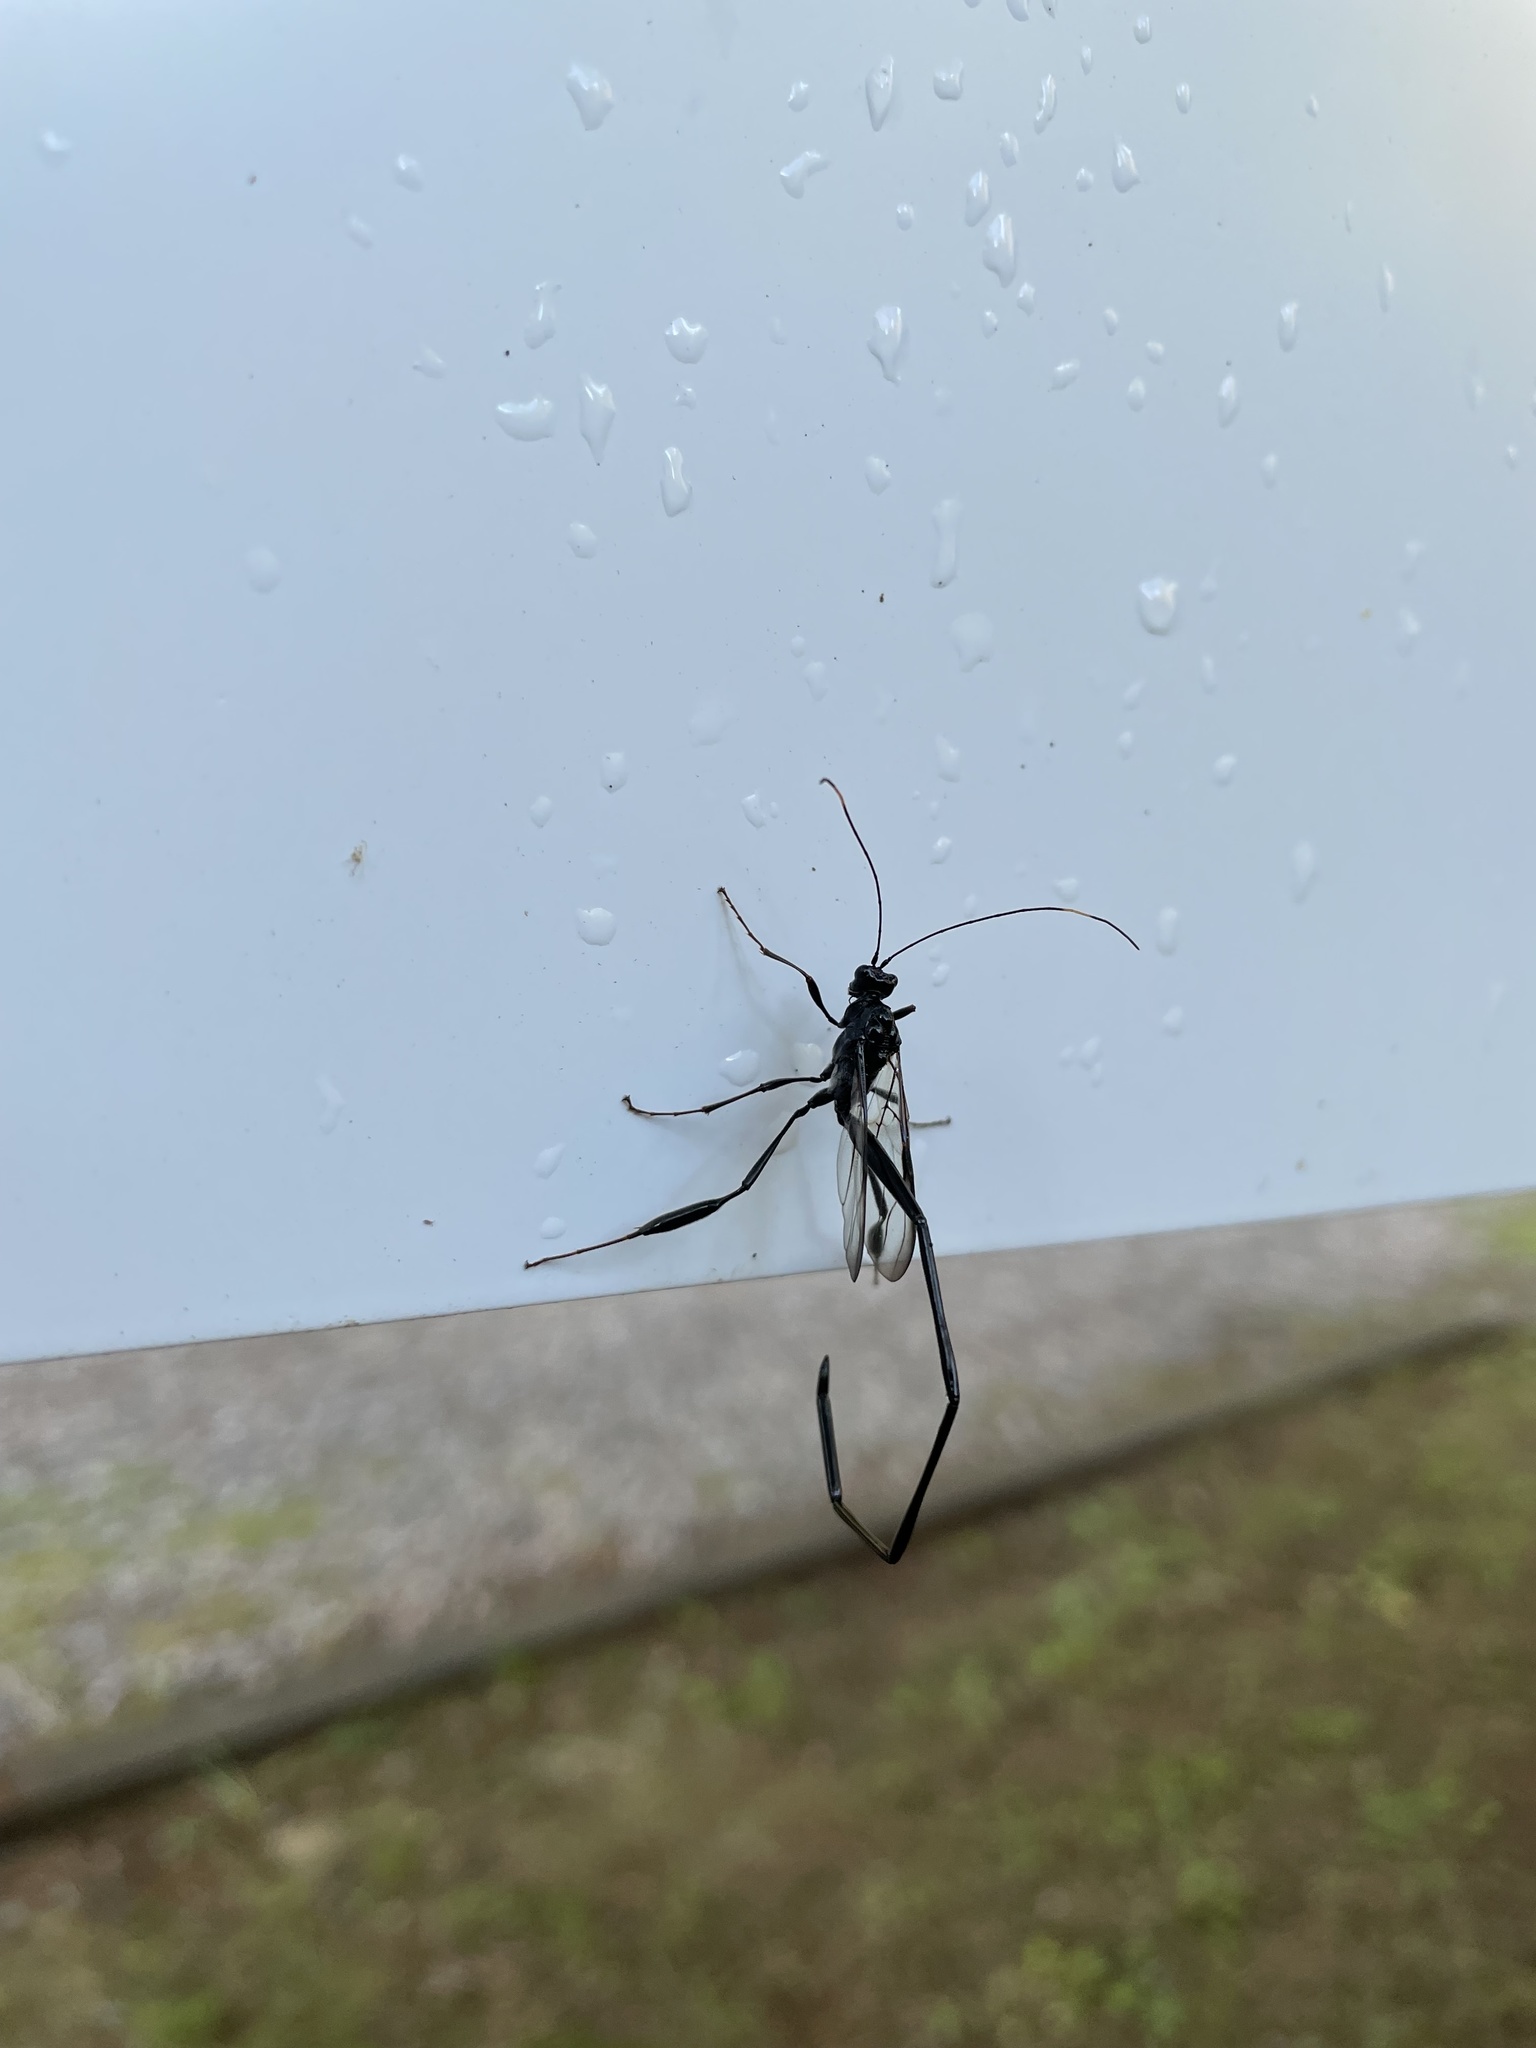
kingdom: Animalia
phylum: Arthropoda
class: Insecta
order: Hymenoptera
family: Pelecinidae
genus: Pelecinus
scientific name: Pelecinus polyturator
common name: American pelecinid wasp
